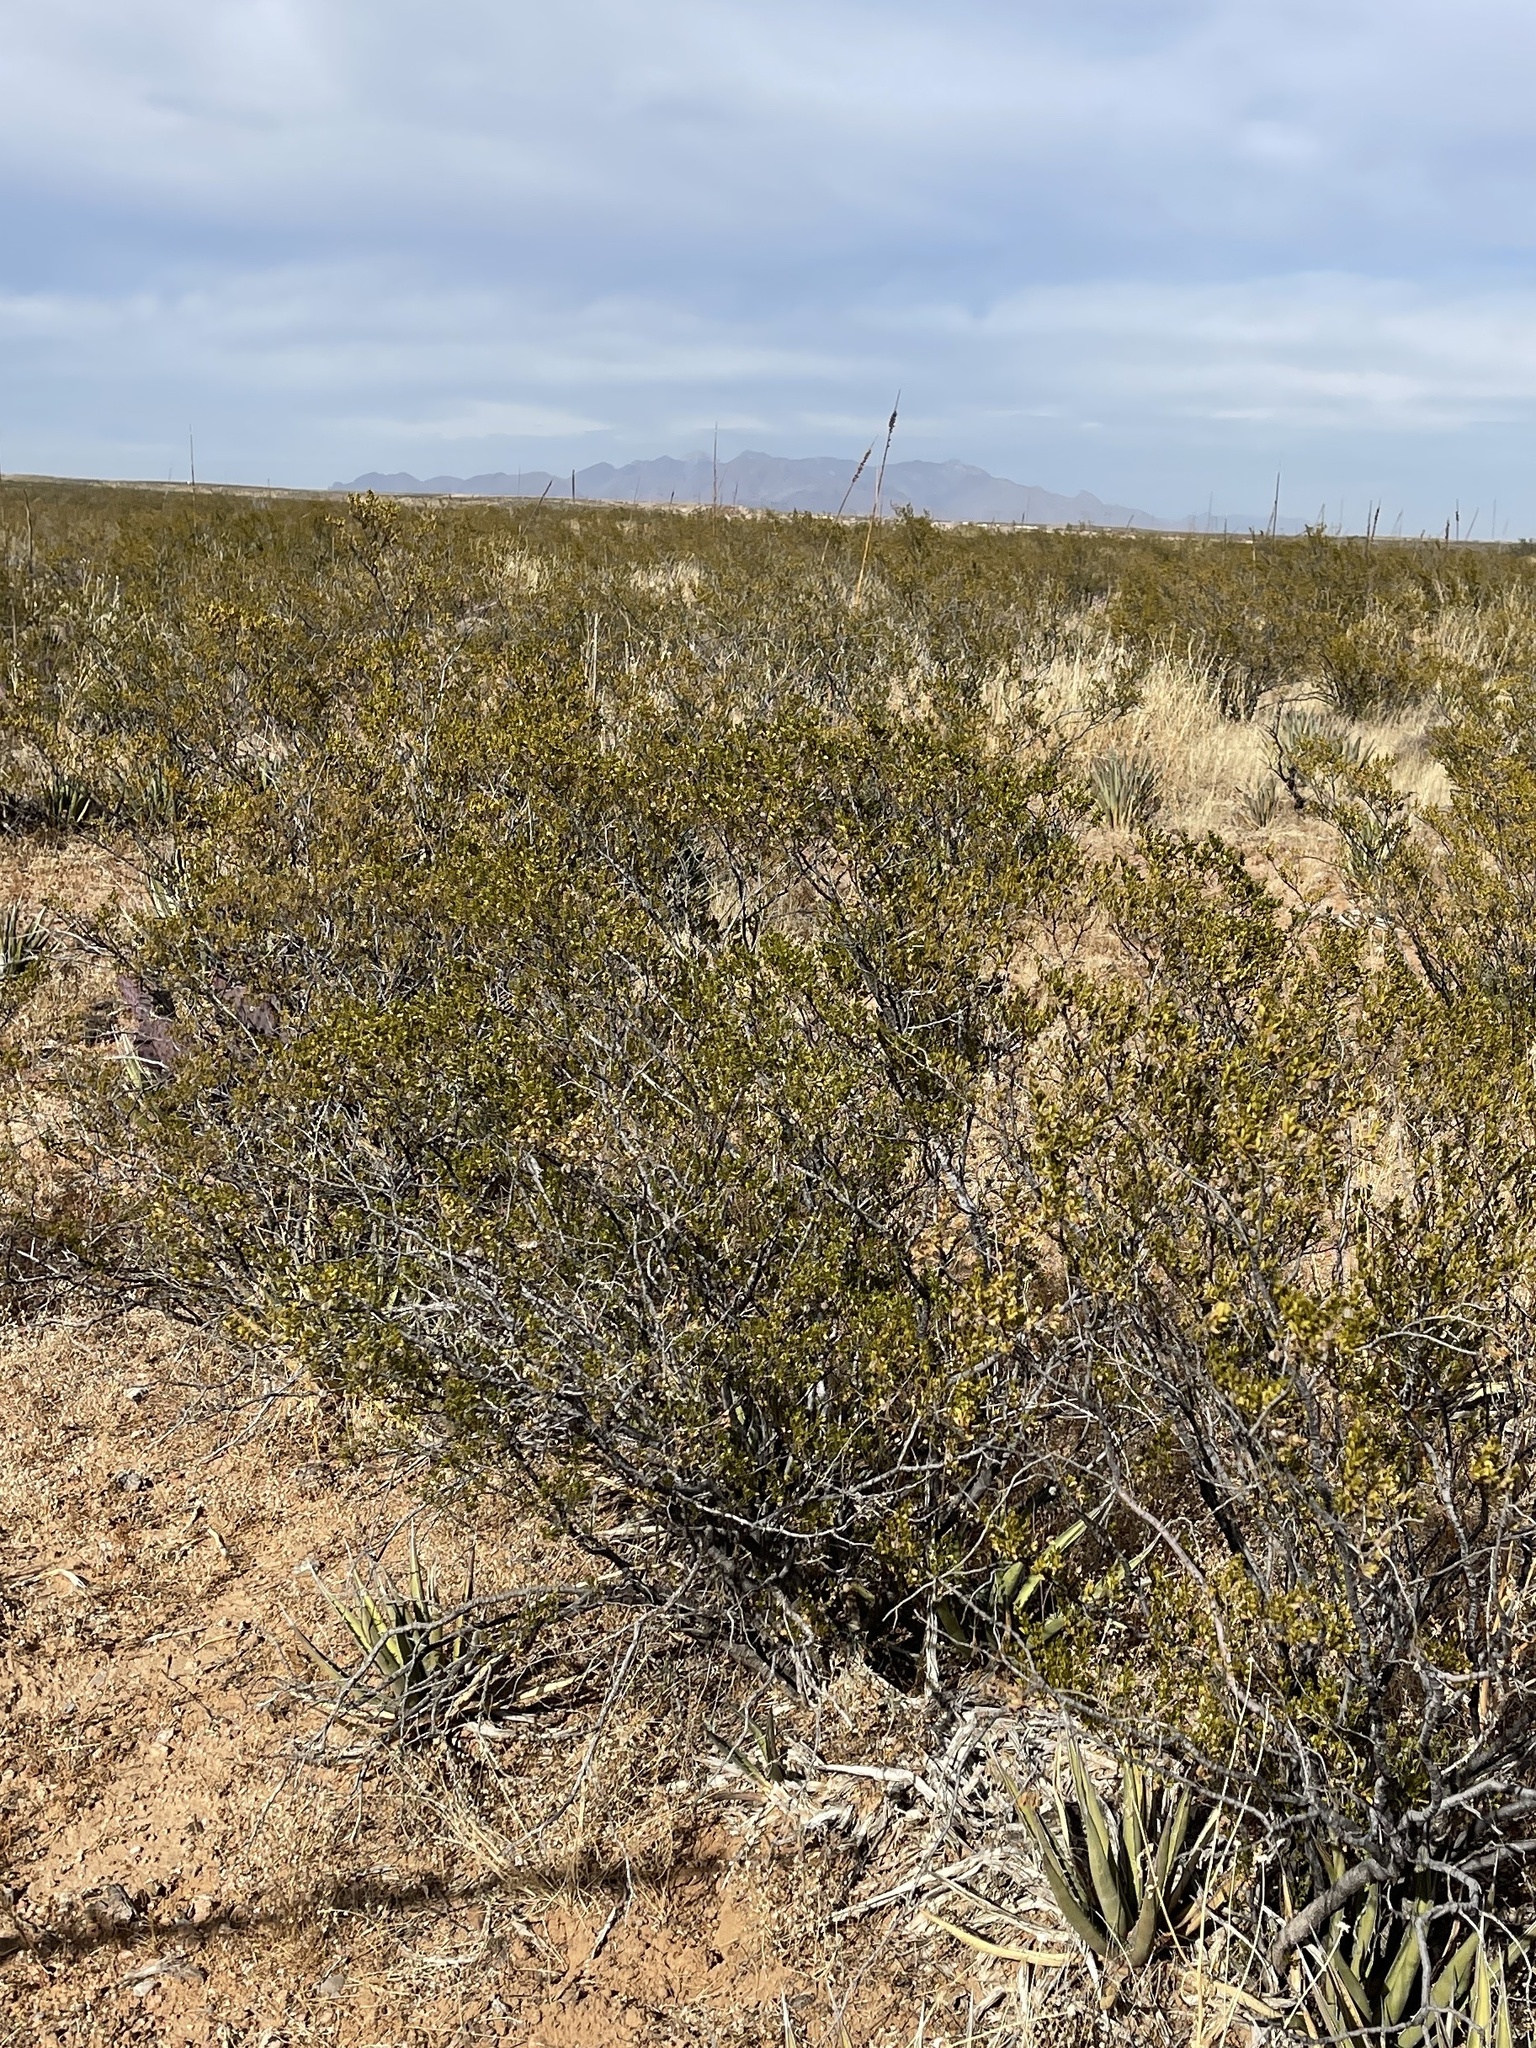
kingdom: Plantae
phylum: Tracheophyta
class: Magnoliopsida
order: Zygophyllales
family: Zygophyllaceae
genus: Larrea
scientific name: Larrea tridentata
